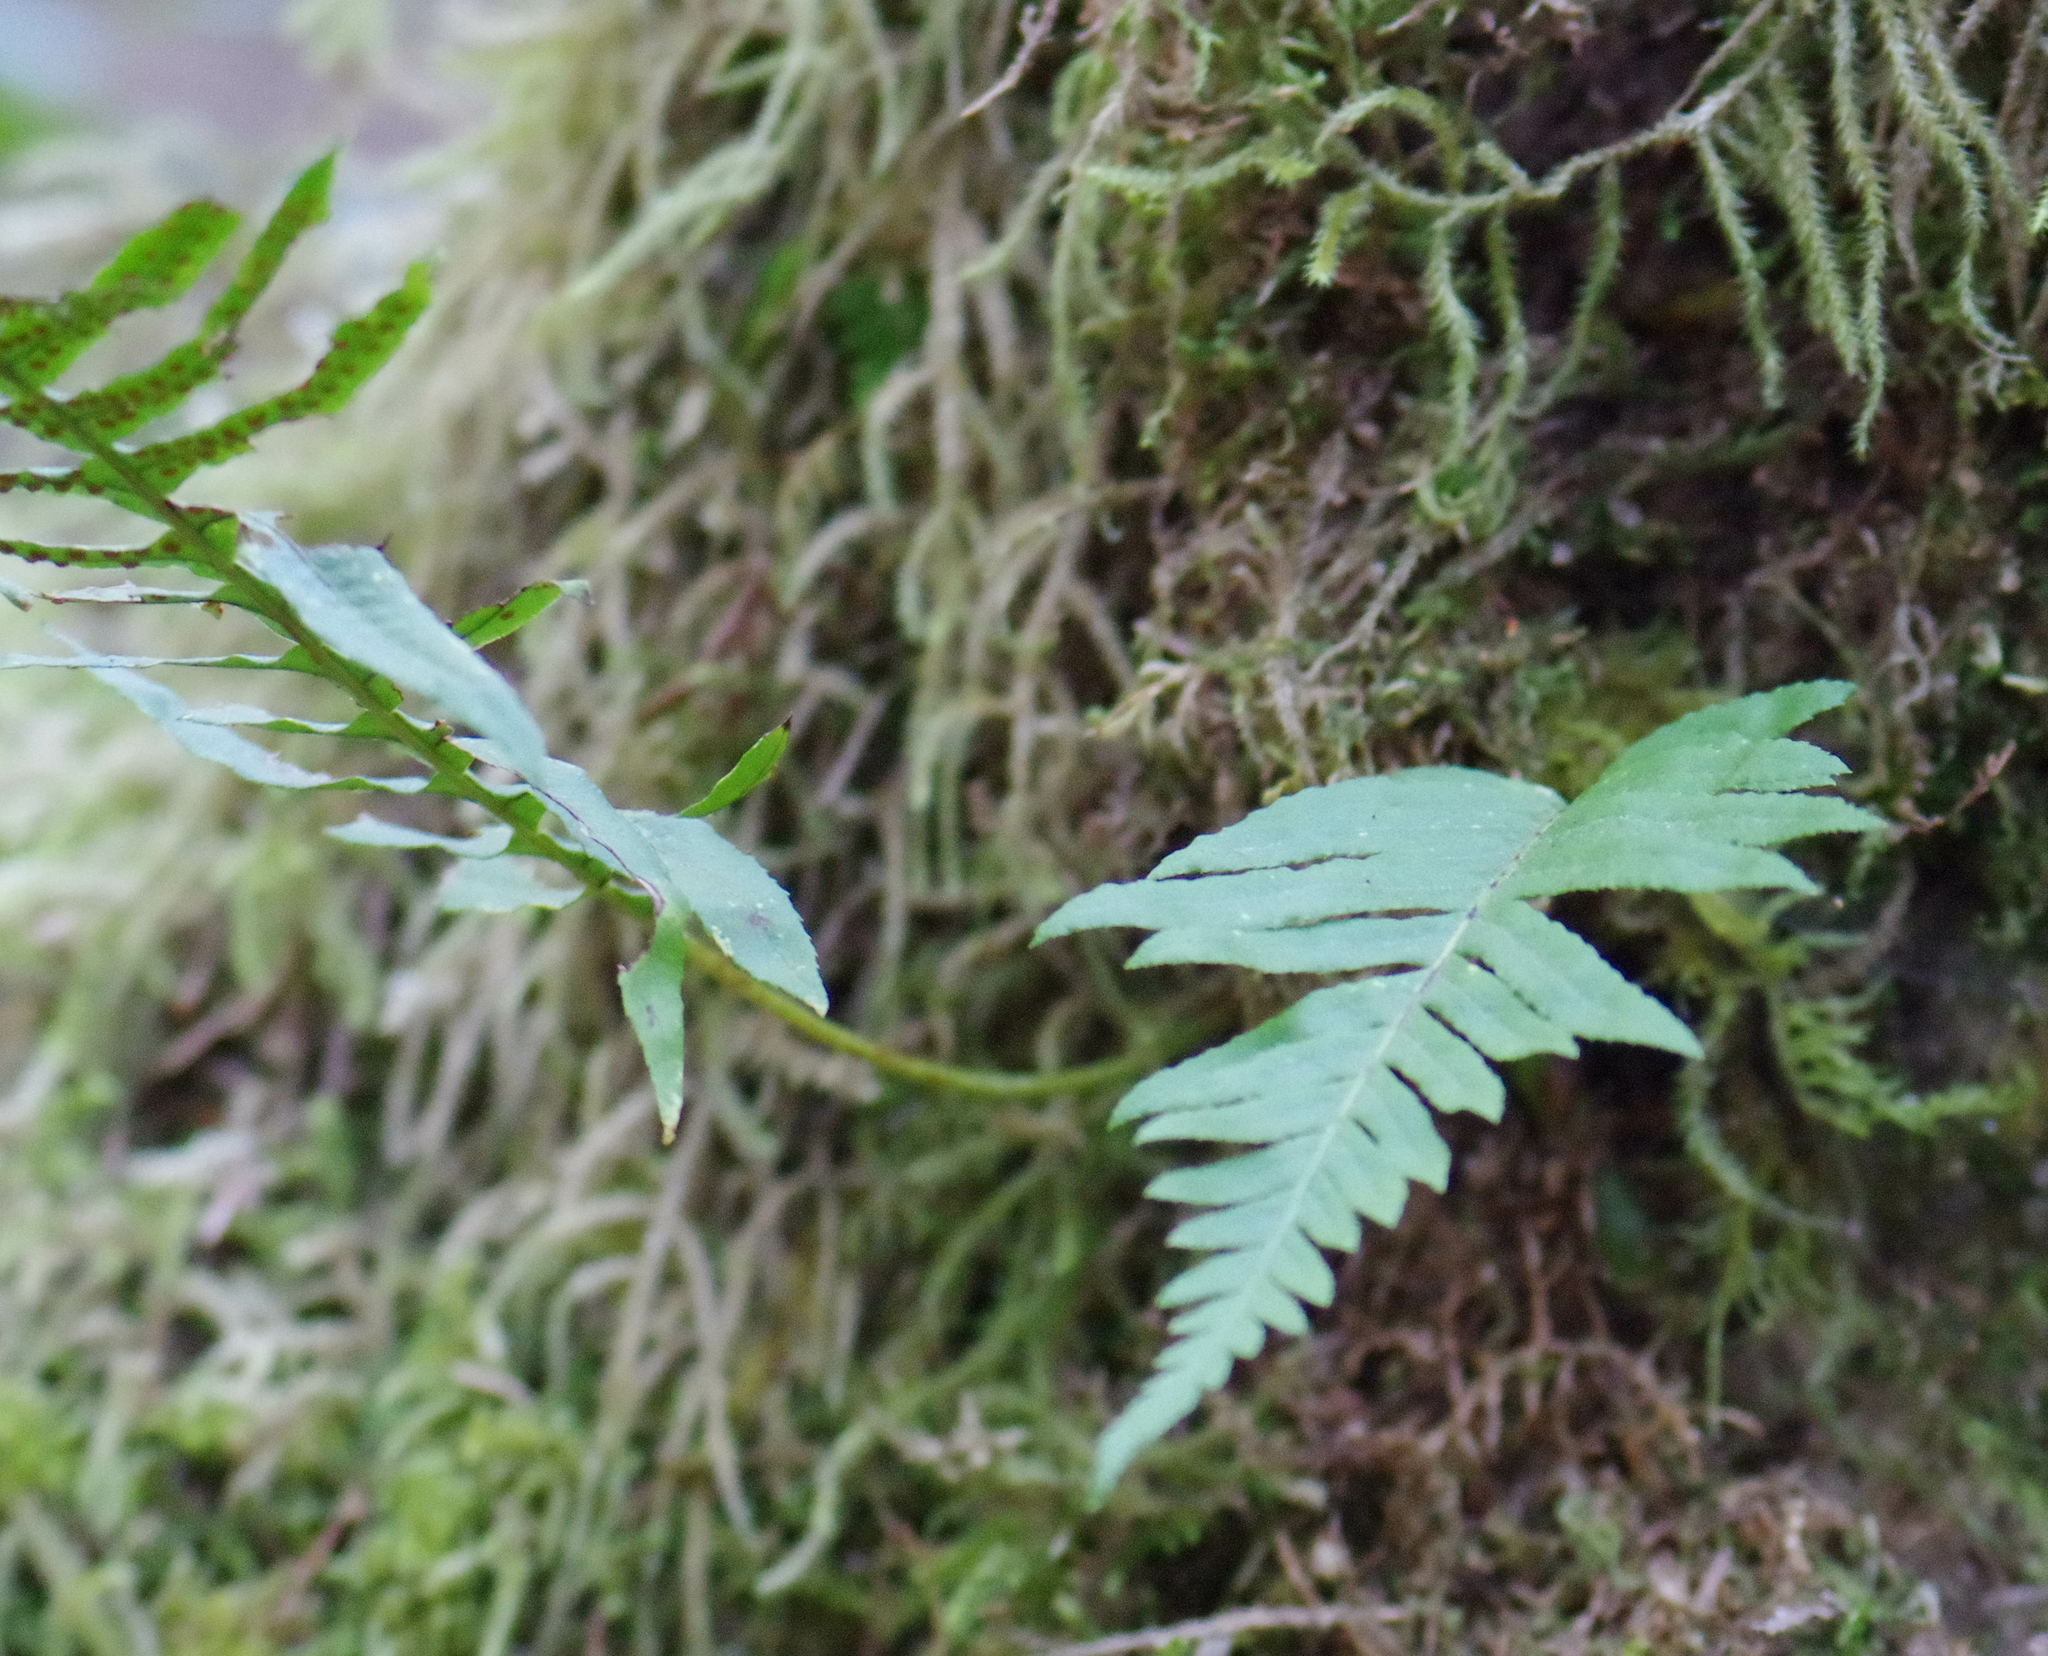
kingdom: Plantae
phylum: Tracheophyta
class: Polypodiopsida
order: Polypodiales
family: Polypodiaceae
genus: Polypodium
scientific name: Polypodium glycyrrhiza
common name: Licorice fern
